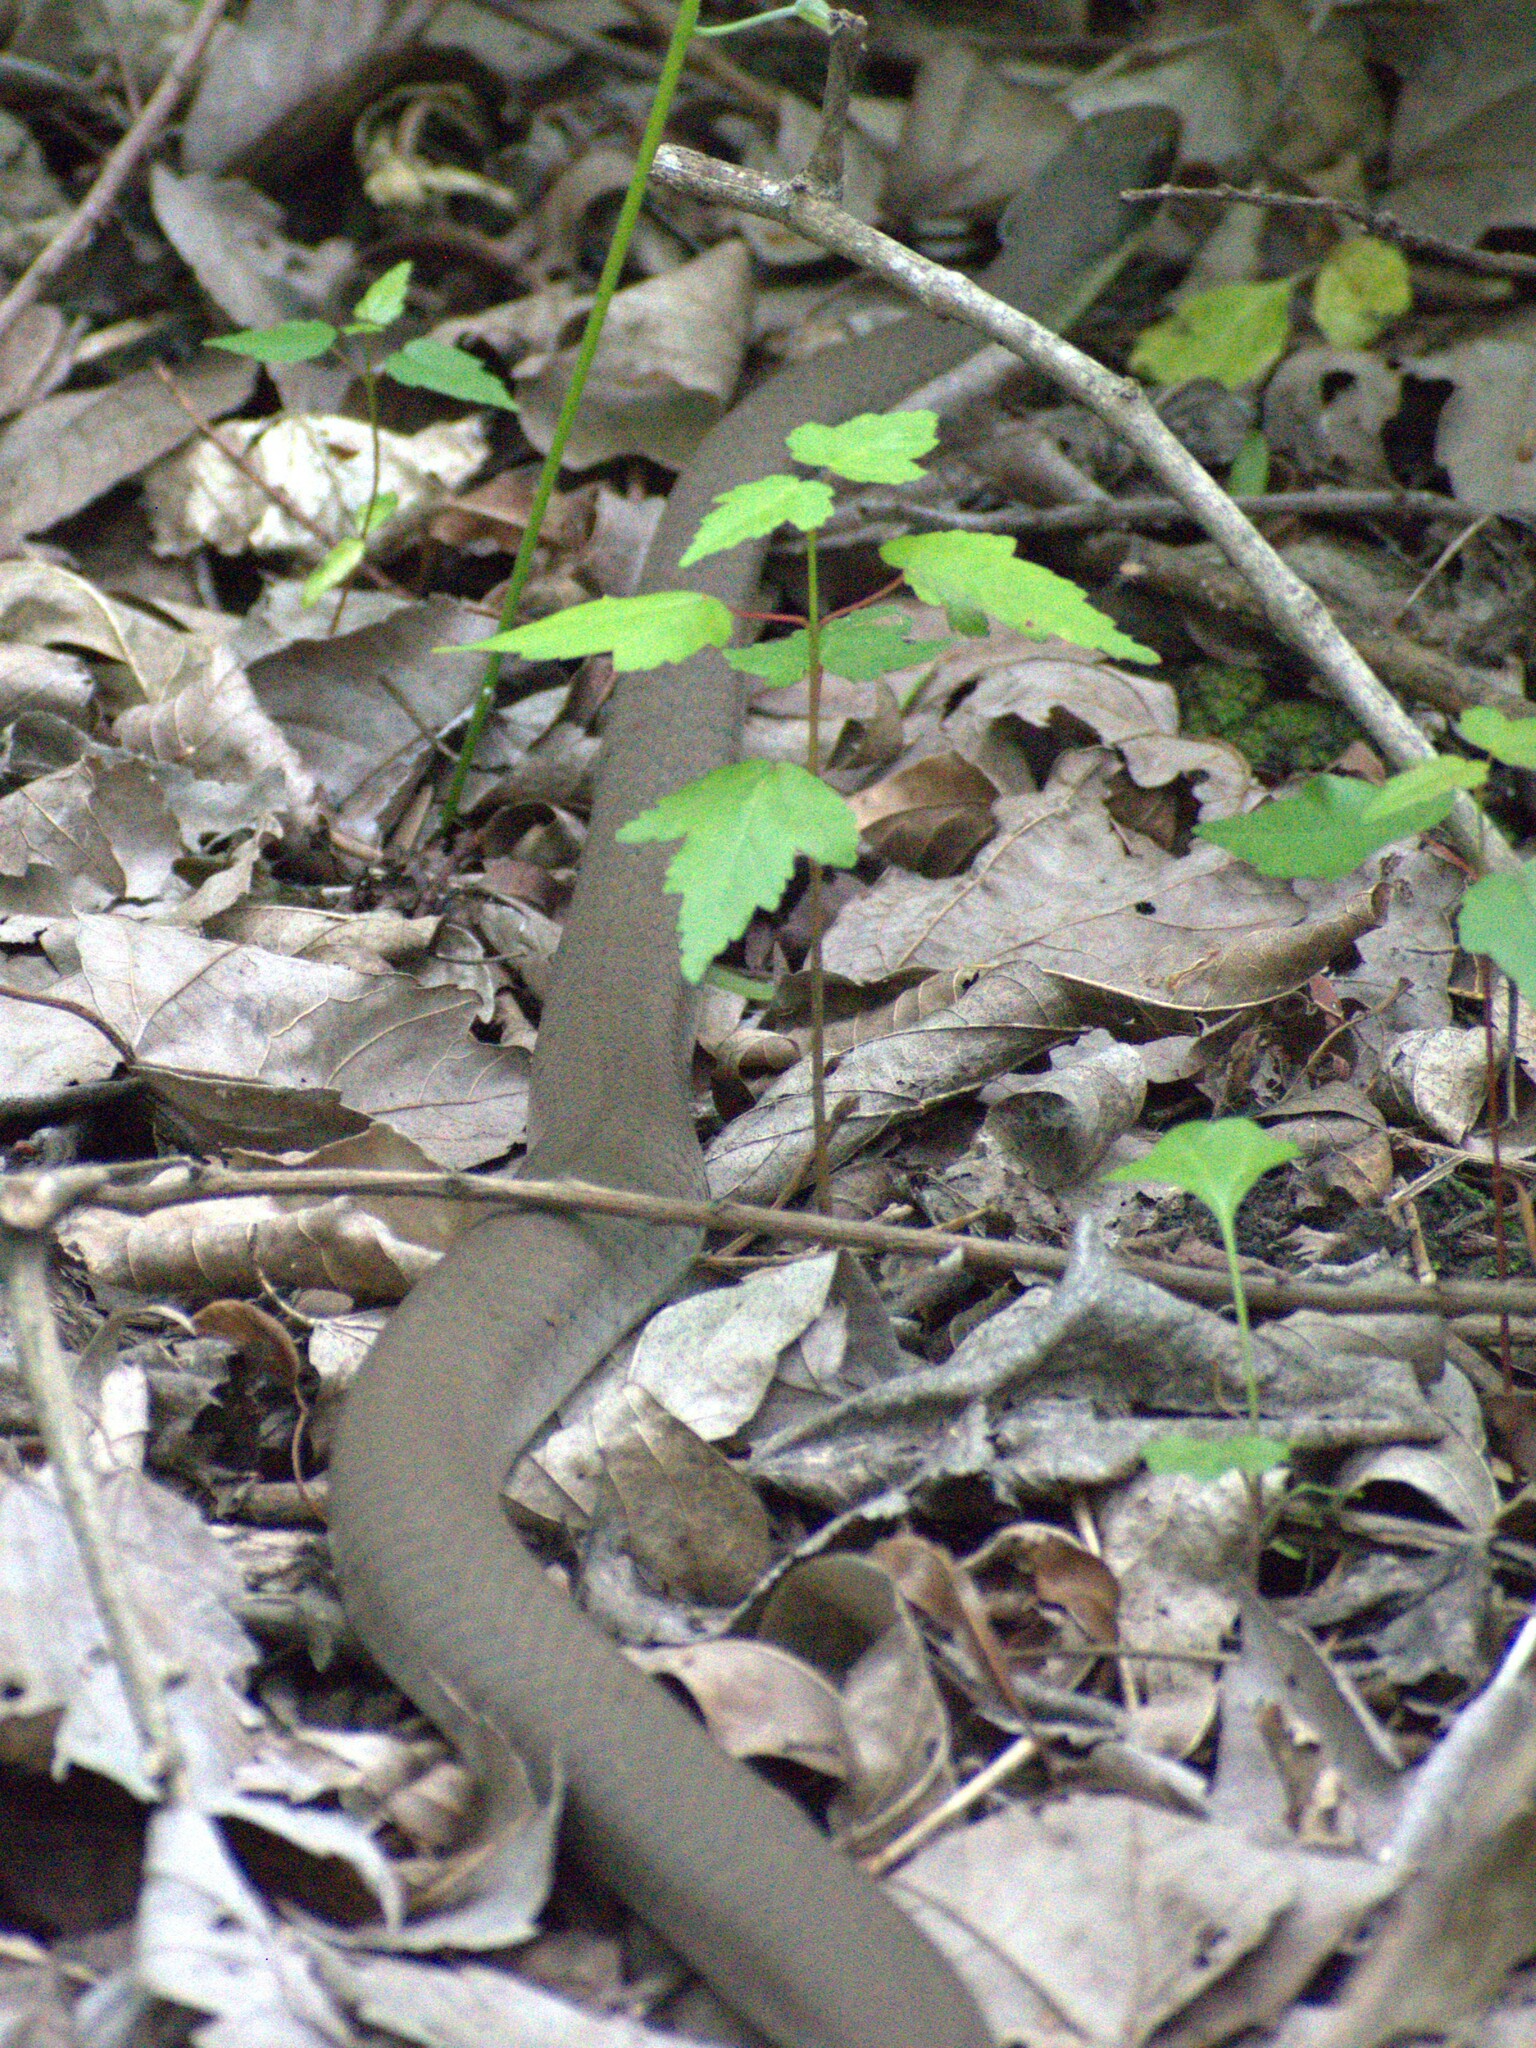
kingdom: Animalia
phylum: Chordata
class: Squamata
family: Colubridae
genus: Coluber
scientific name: Coluber constrictor
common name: Eastern racer
